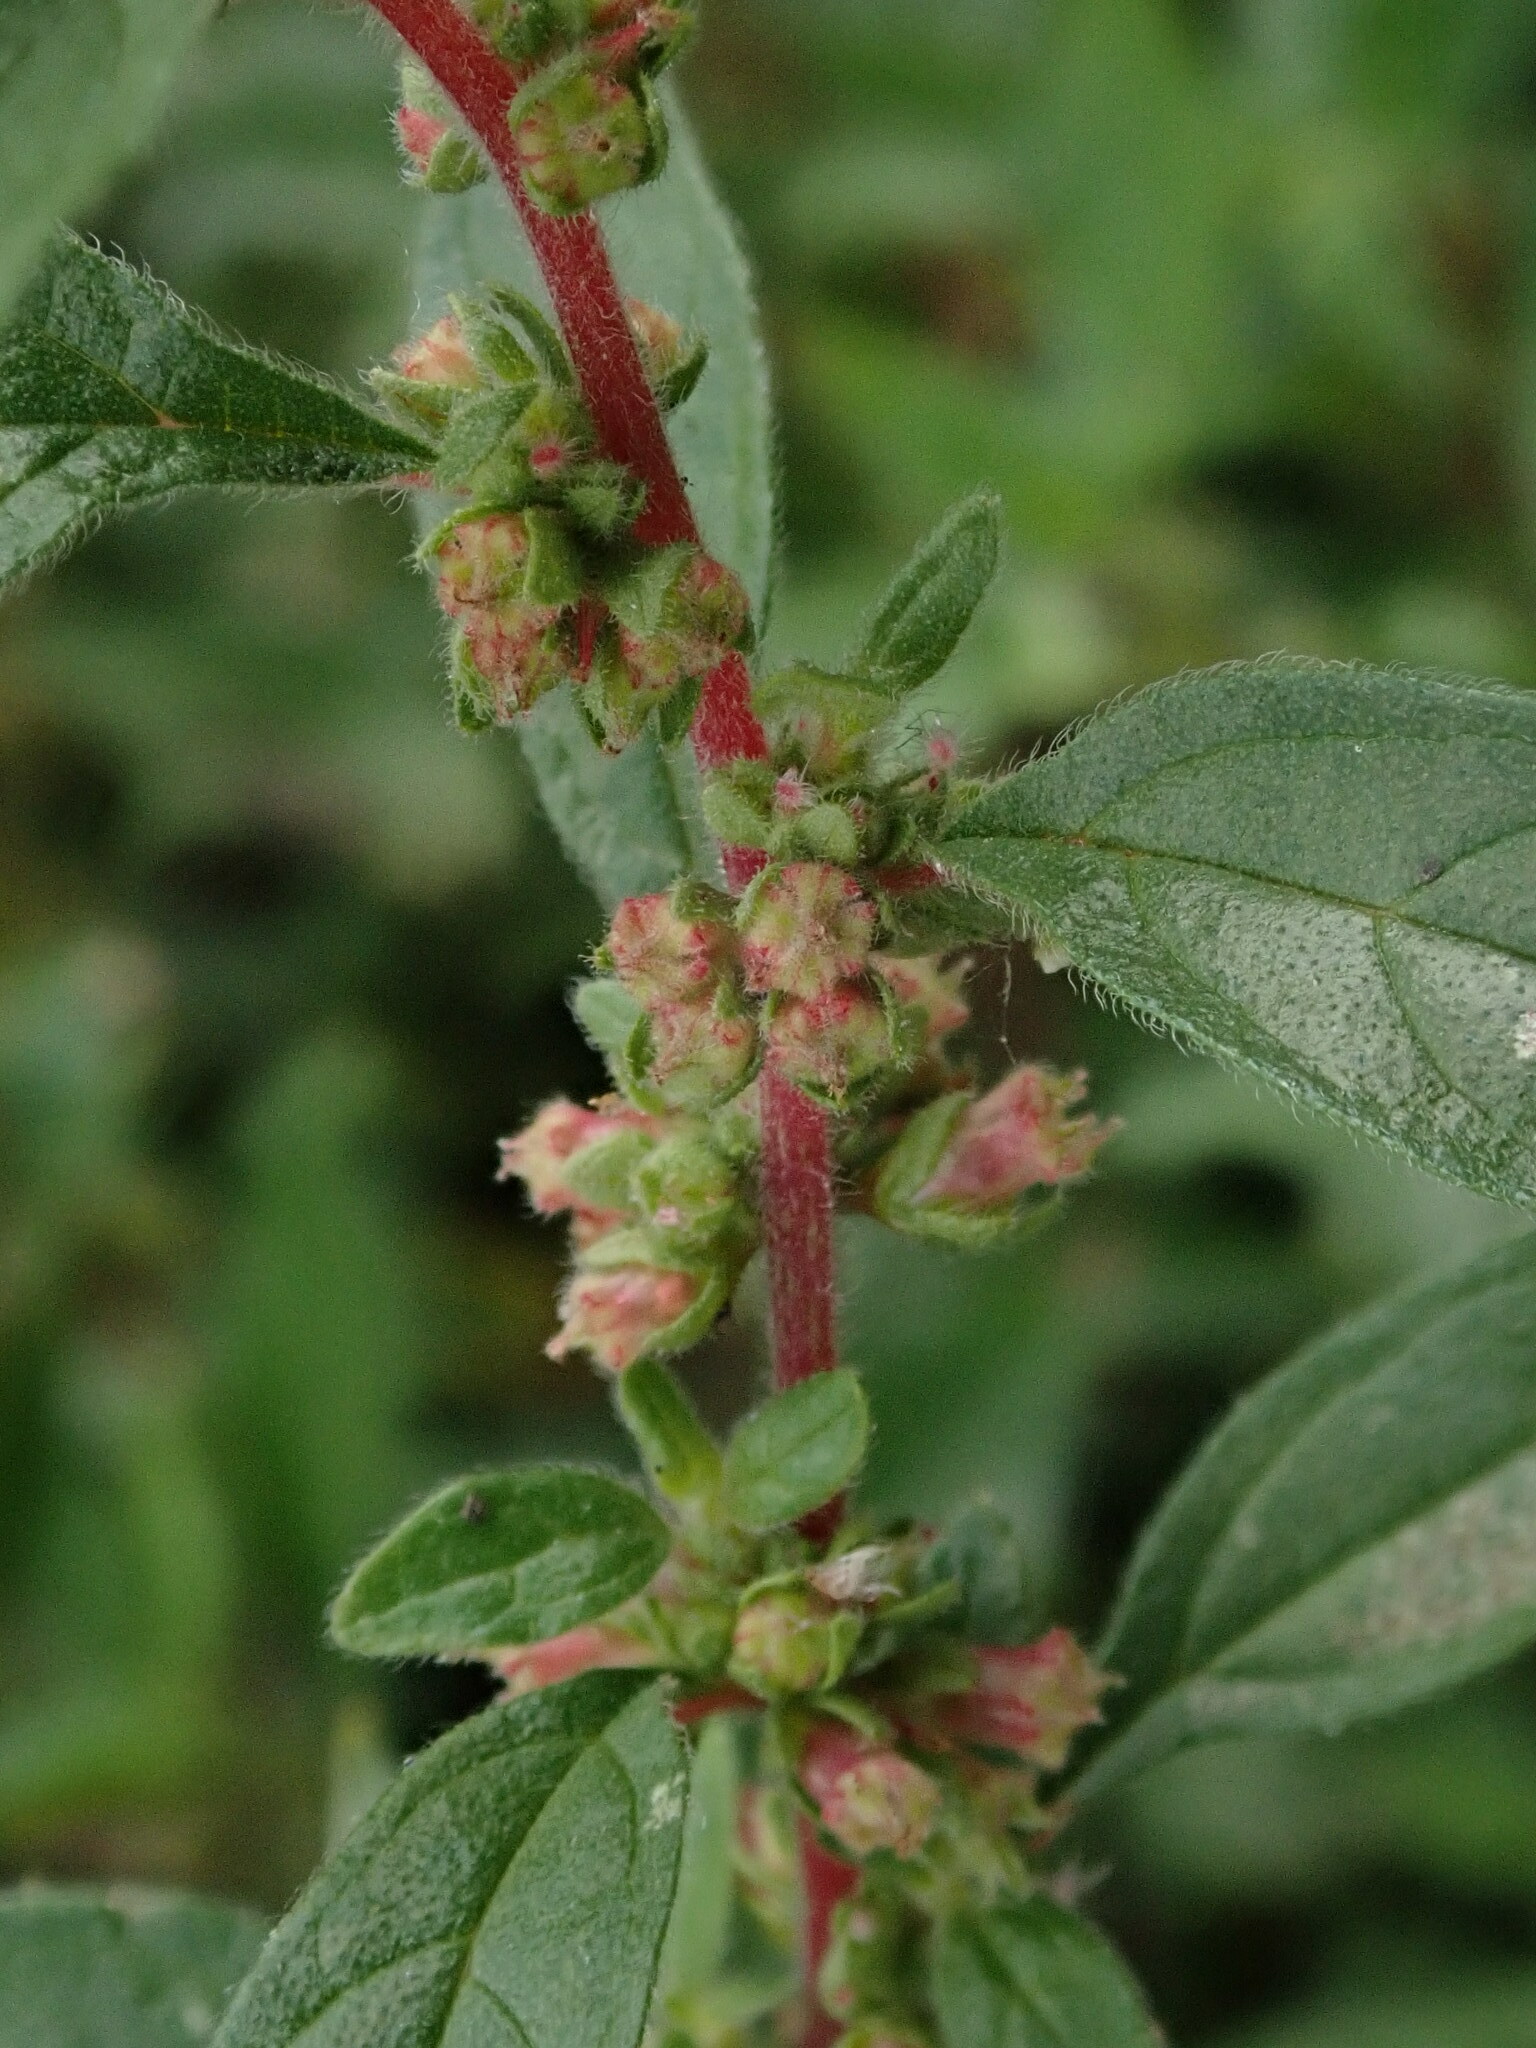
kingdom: Plantae
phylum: Tracheophyta
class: Magnoliopsida
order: Rosales
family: Urticaceae
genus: Parietaria
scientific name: Parietaria judaica
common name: Pellitory-of-the-wall
